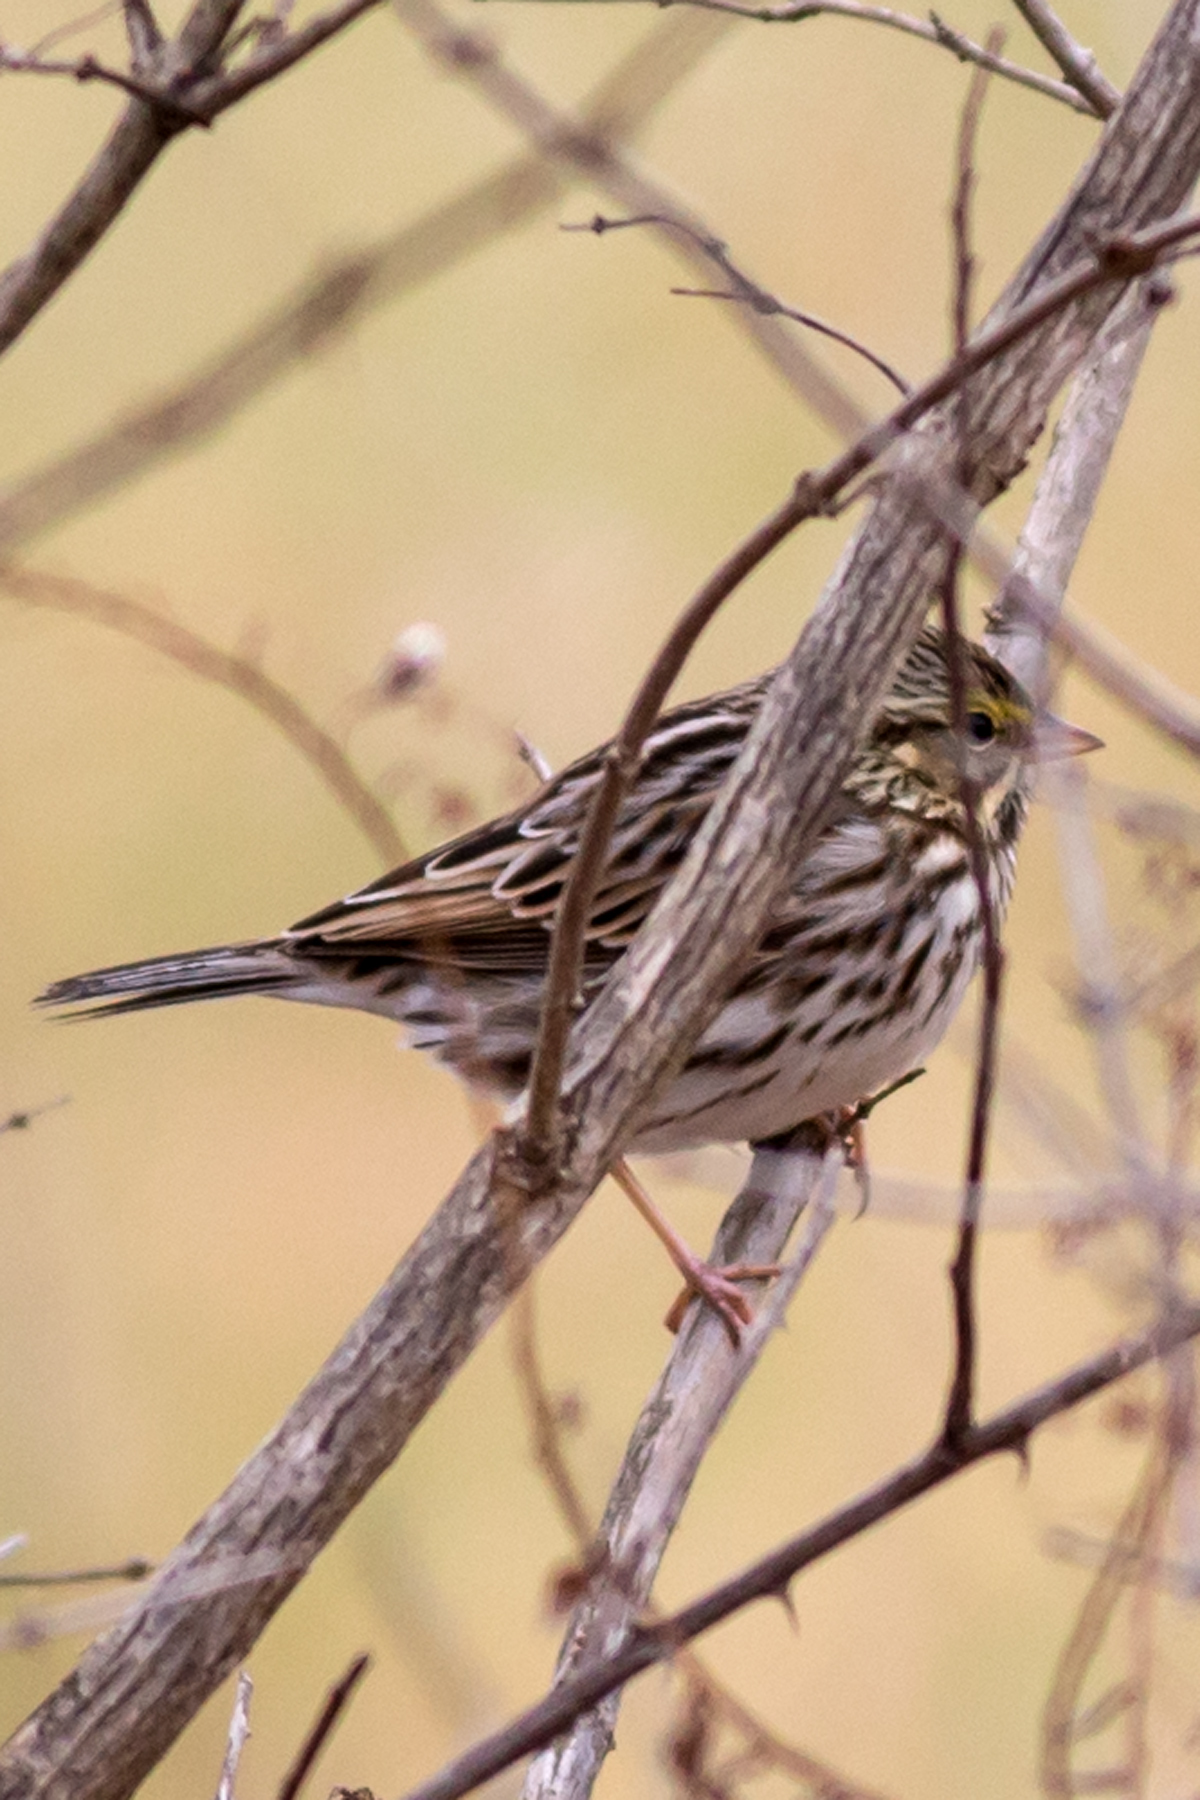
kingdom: Animalia
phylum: Chordata
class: Aves
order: Passeriformes
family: Passerellidae
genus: Passerculus
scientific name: Passerculus sandwichensis
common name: Savannah sparrow
